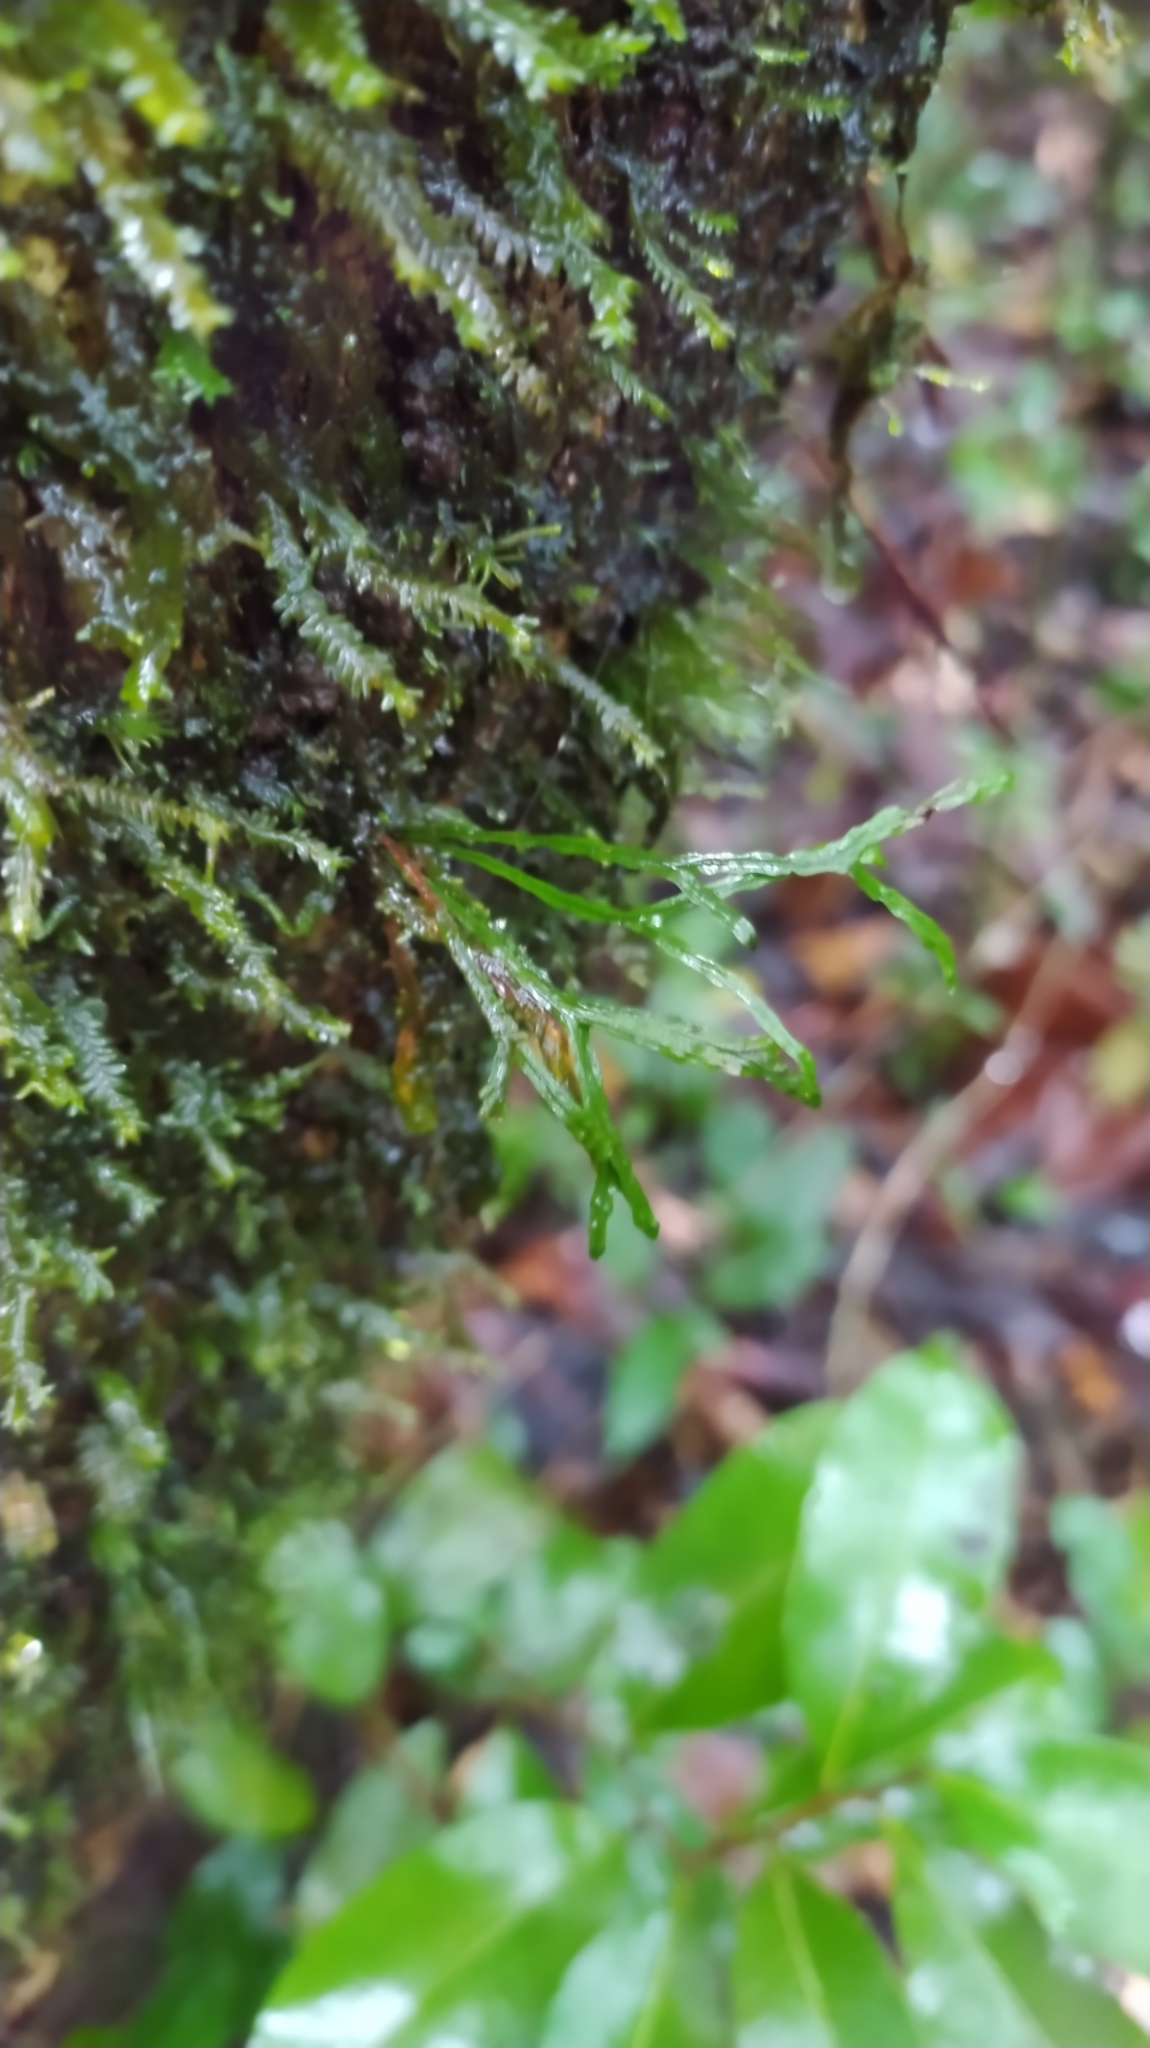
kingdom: Plantae
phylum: Tracheophyta
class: Polypodiopsida
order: Polypodiales
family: Polypodiaceae
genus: Cochlidium
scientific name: Cochlidium furcatum
